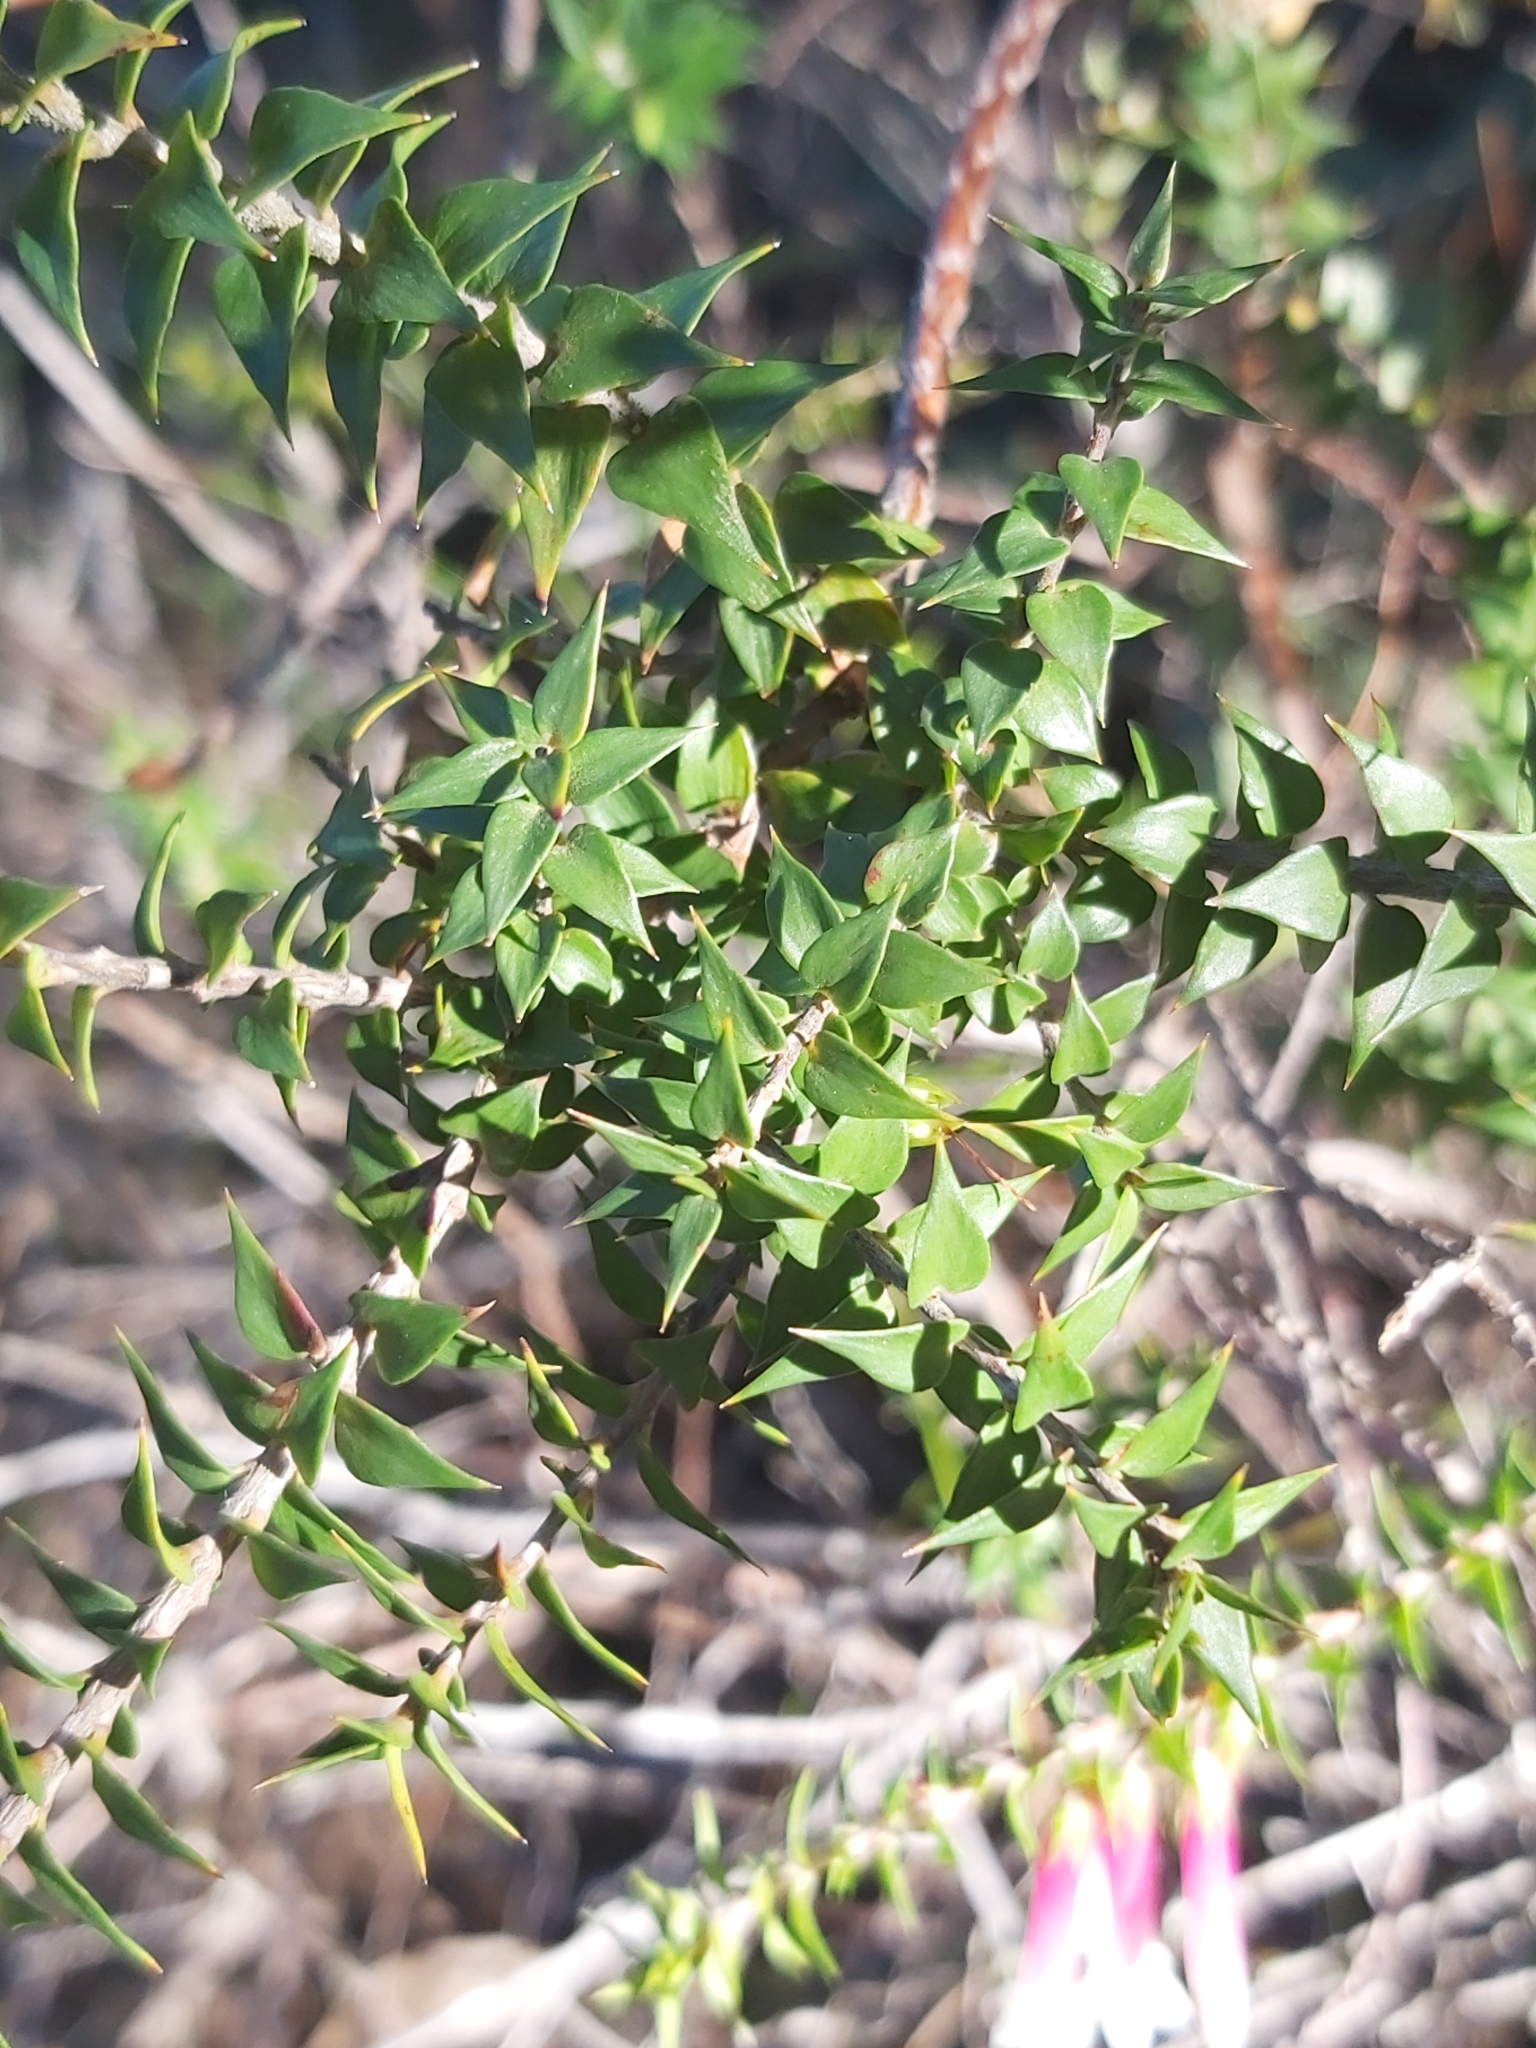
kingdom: Plantae
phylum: Tracheophyta
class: Magnoliopsida
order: Ericales
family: Ericaceae
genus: Epacris
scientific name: Epacris longiflora
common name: Fuchsia-heath
